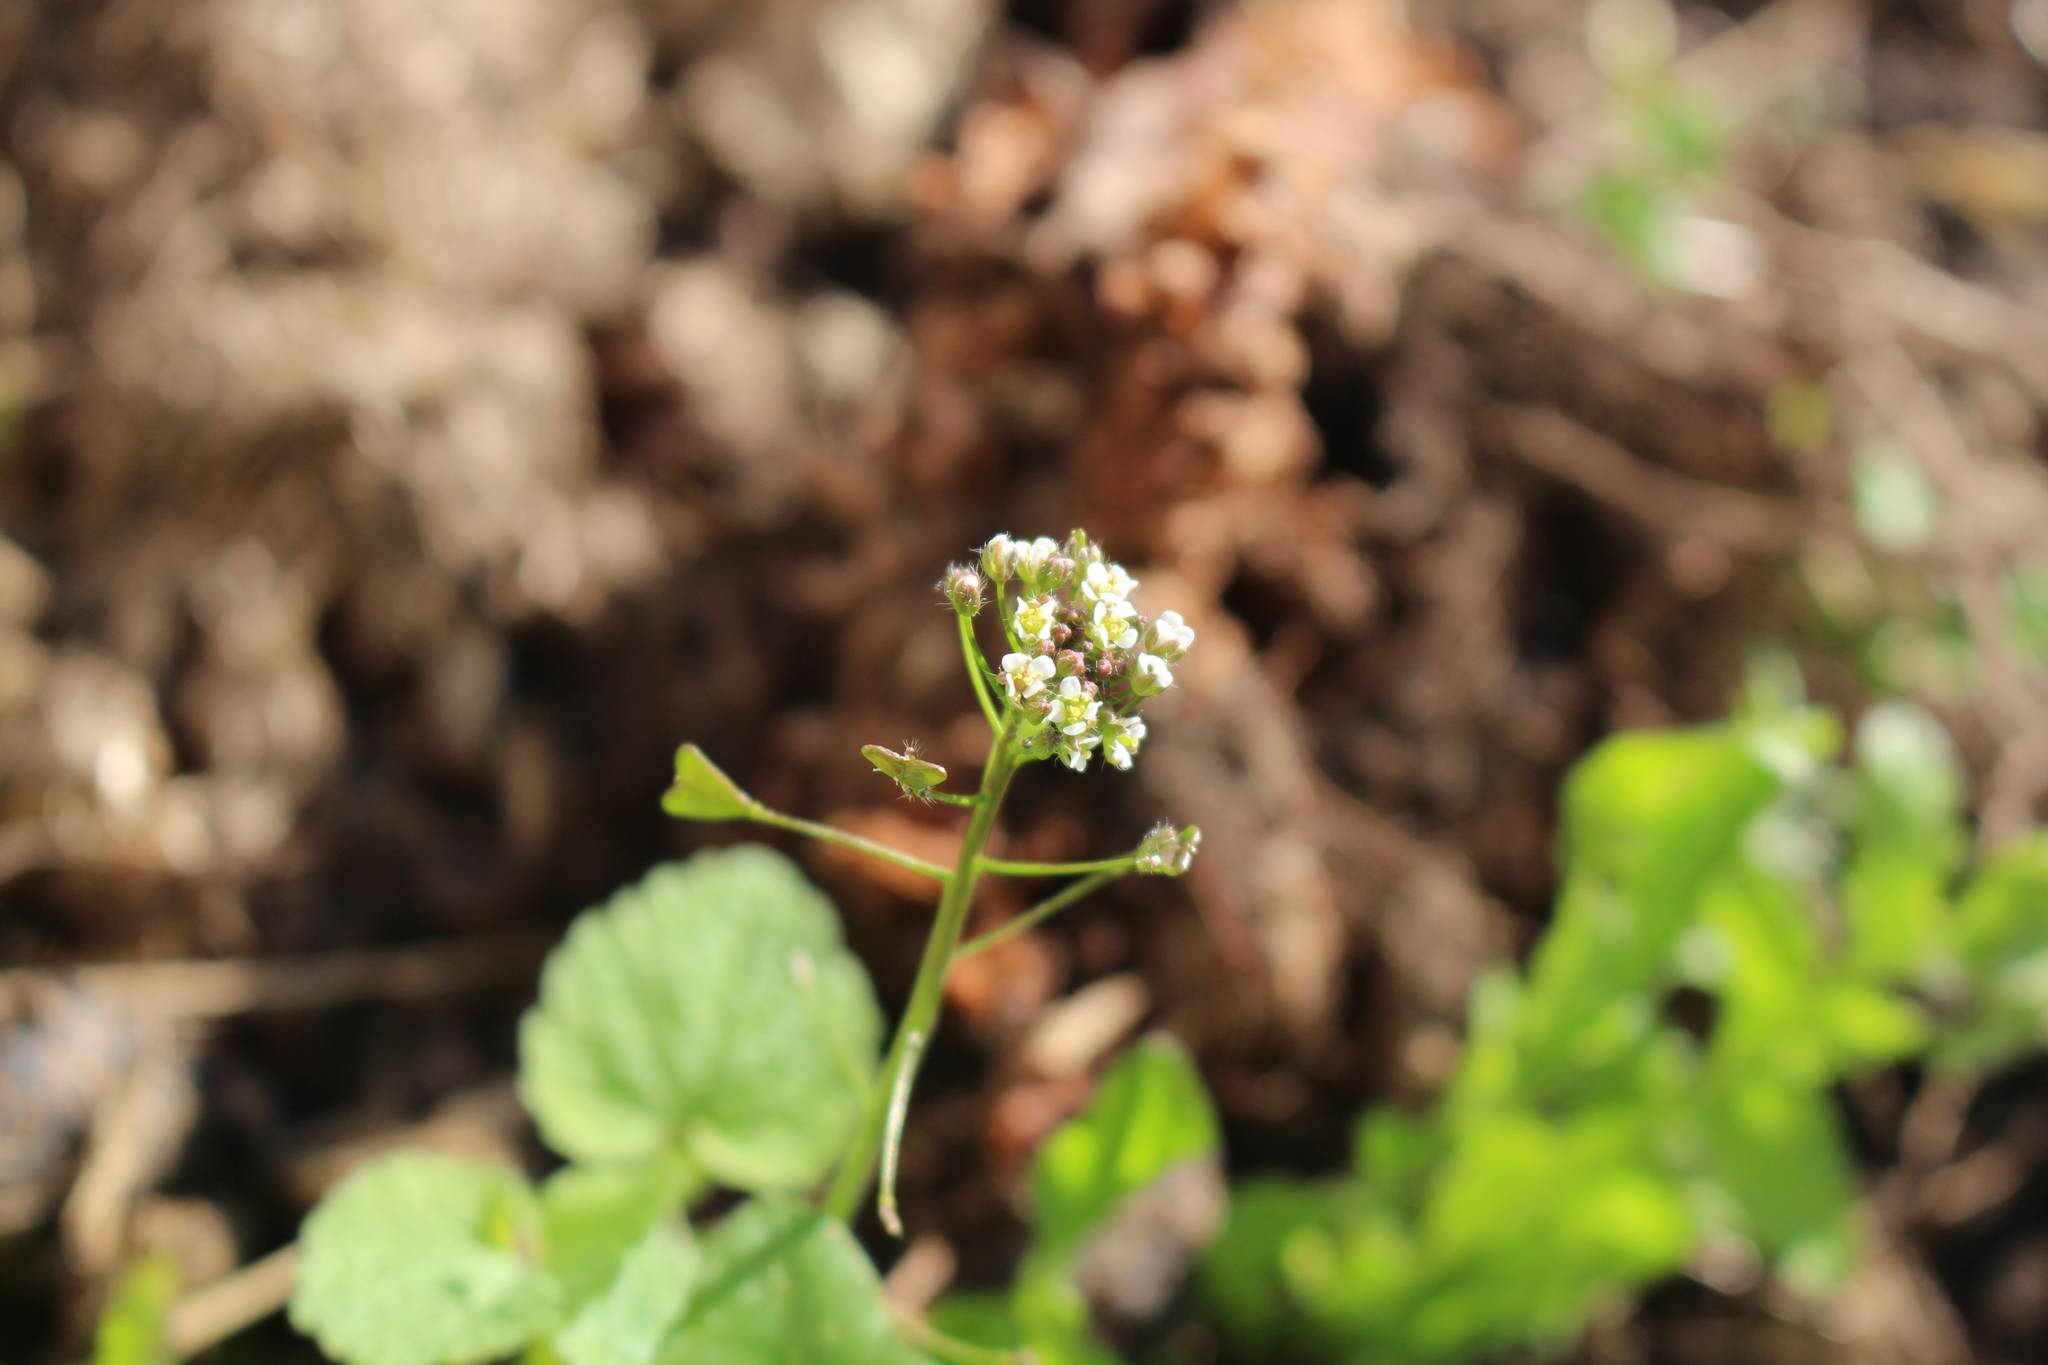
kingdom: Plantae
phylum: Tracheophyta
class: Magnoliopsida
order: Brassicales
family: Brassicaceae
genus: Capsella
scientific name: Capsella bursa-pastoris
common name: Shepherd's purse
